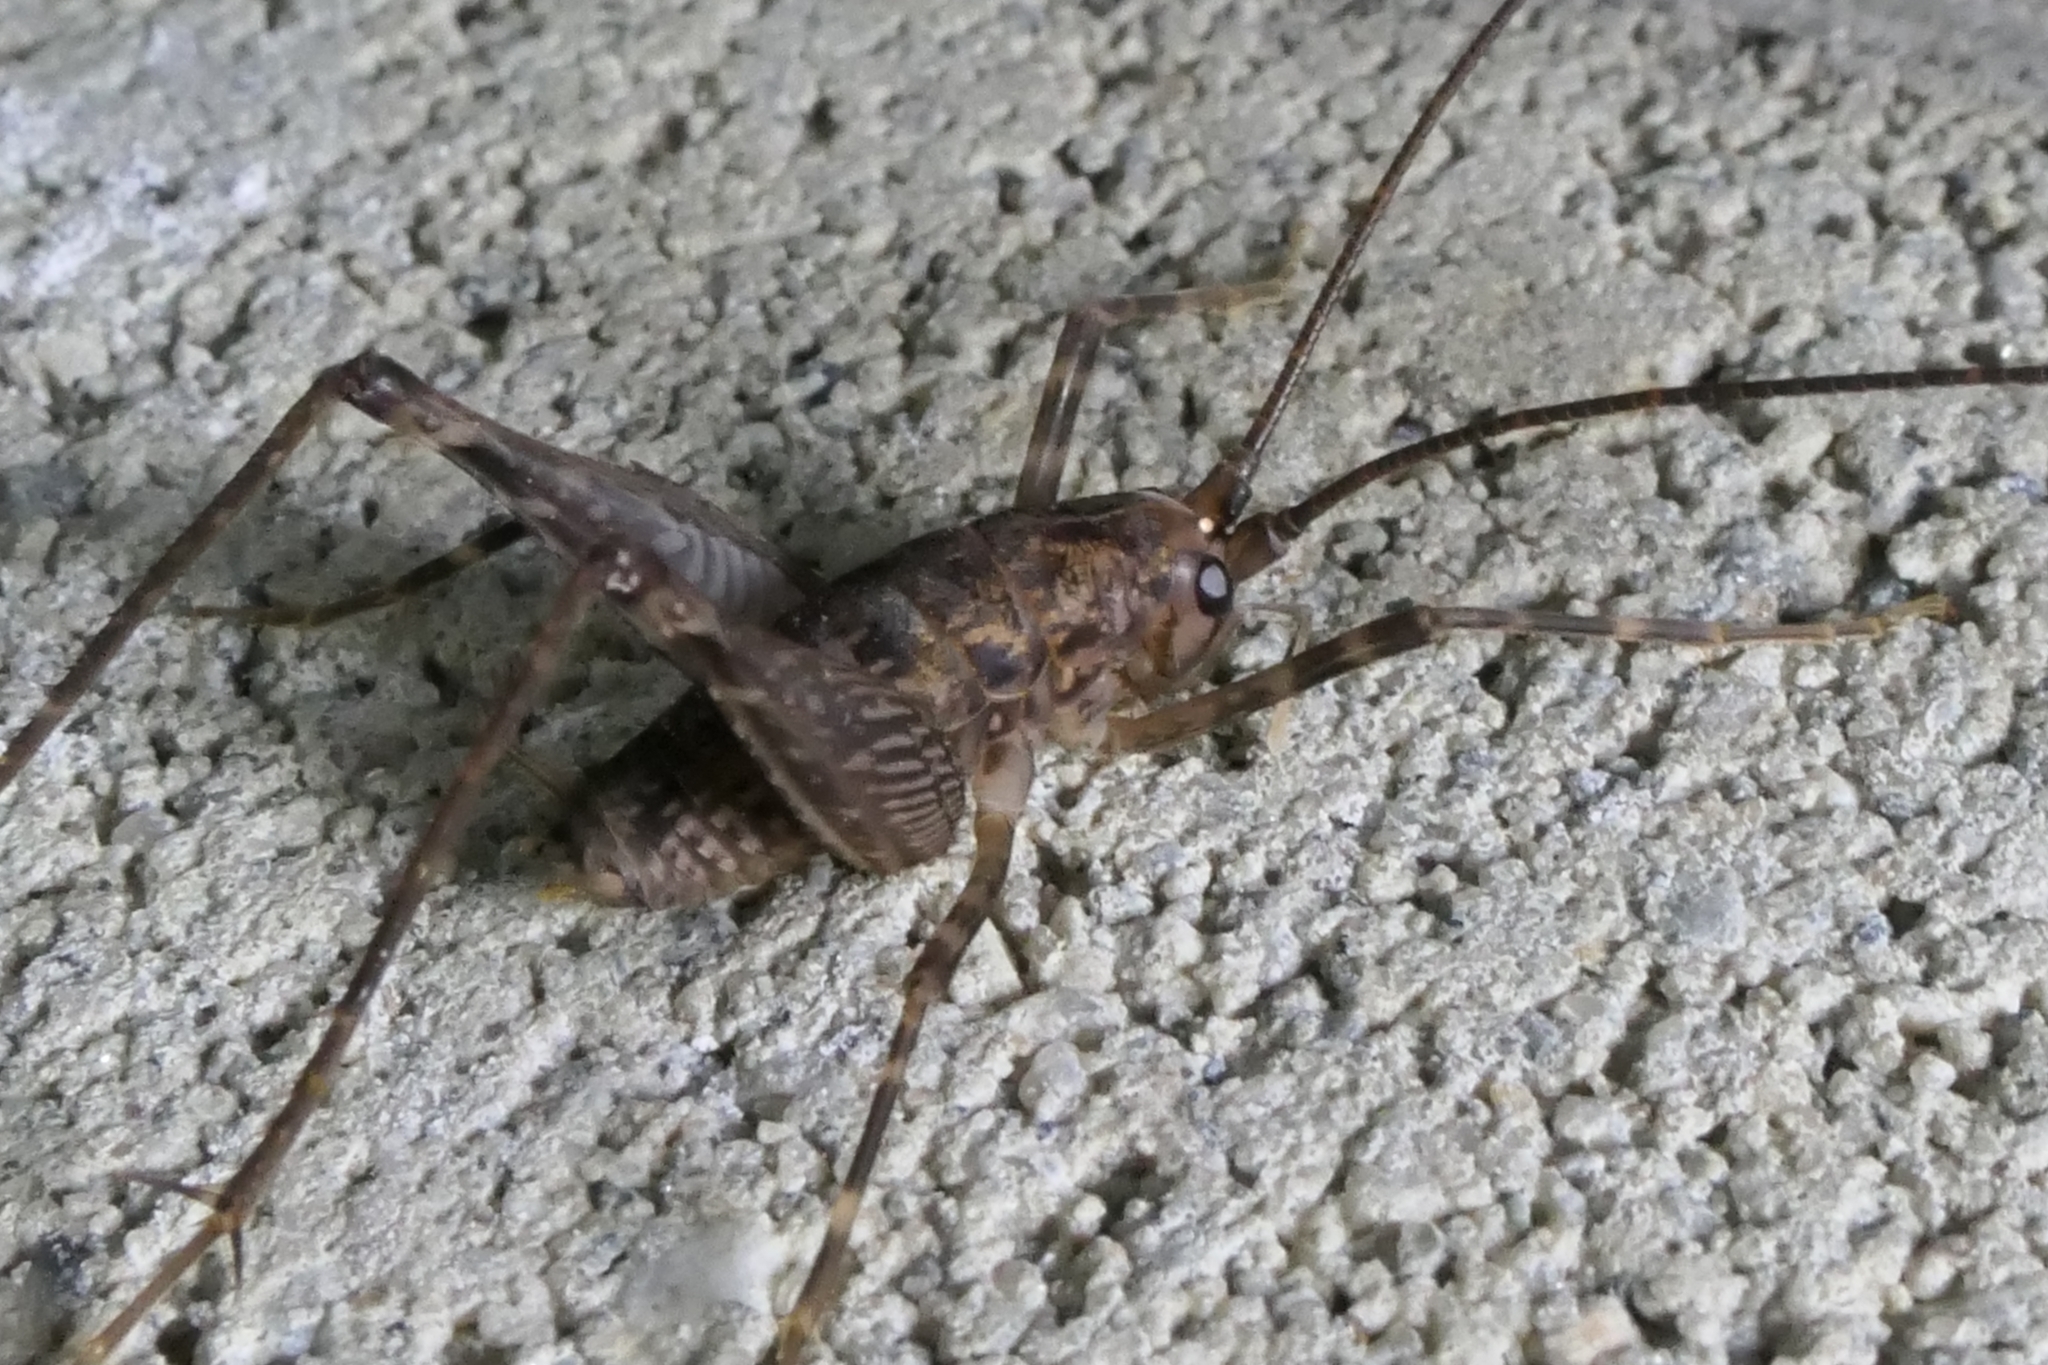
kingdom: Animalia
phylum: Arthropoda
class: Insecta
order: Orthoptera
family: Rhaphidophoridae
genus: Pleioplectron
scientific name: Pleioplectron simplex
